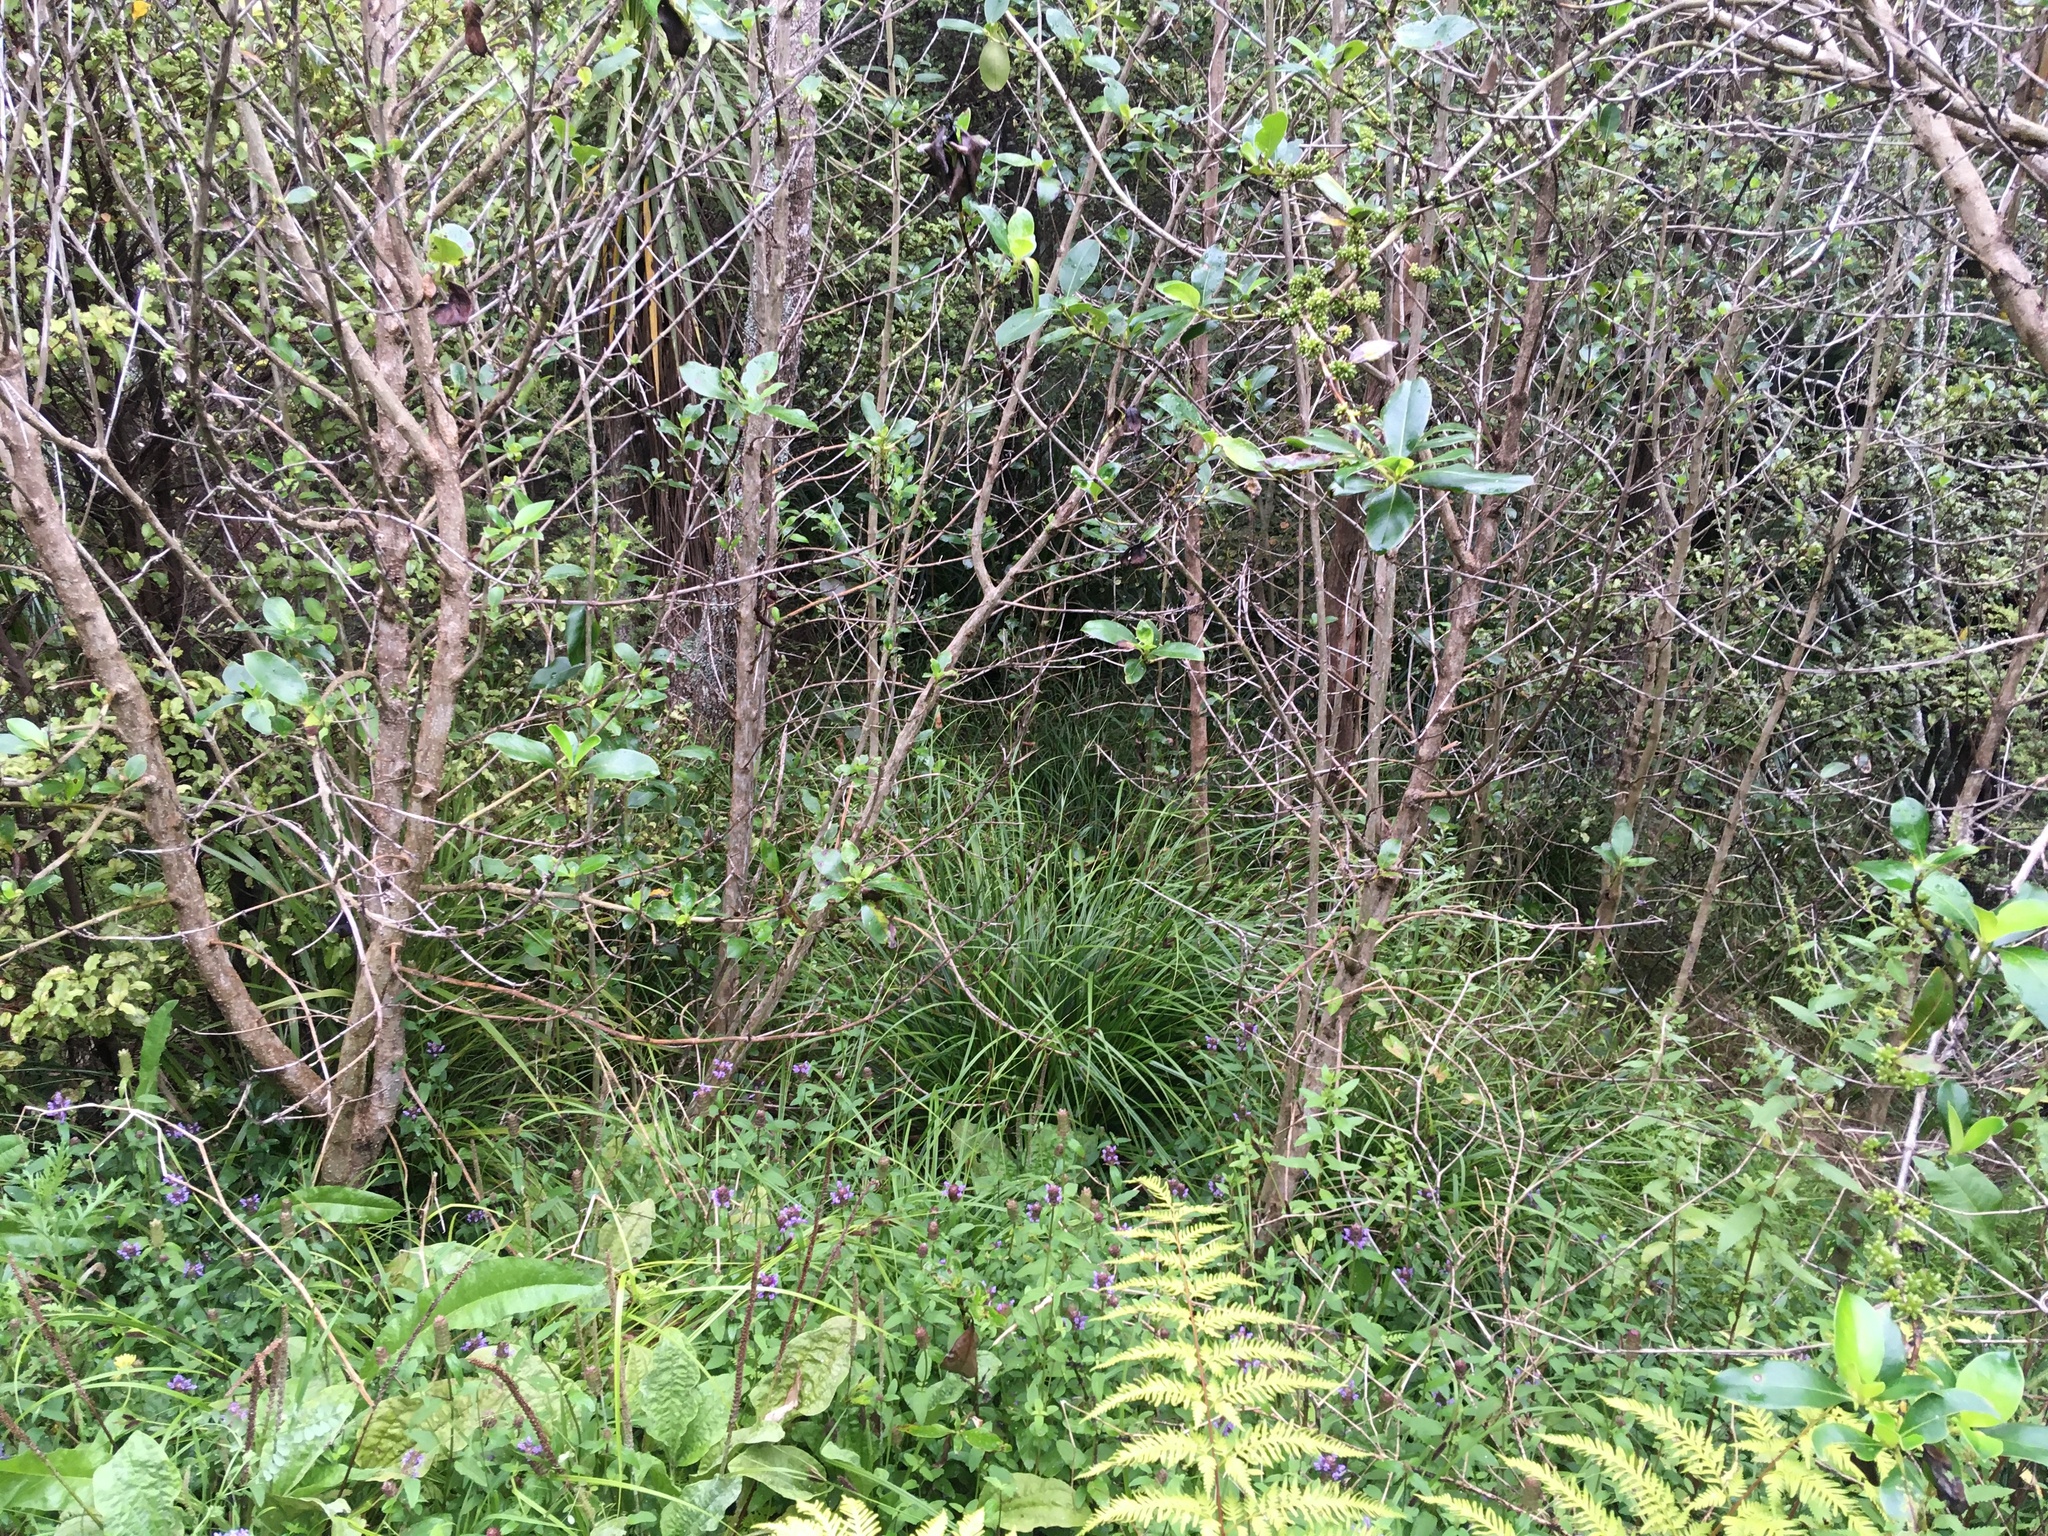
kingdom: Plantae
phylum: Tracheophyta
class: Magnoliopsida
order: Gentianales
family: Rubiaceae
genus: Coprosma
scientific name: Coprosma robusta
